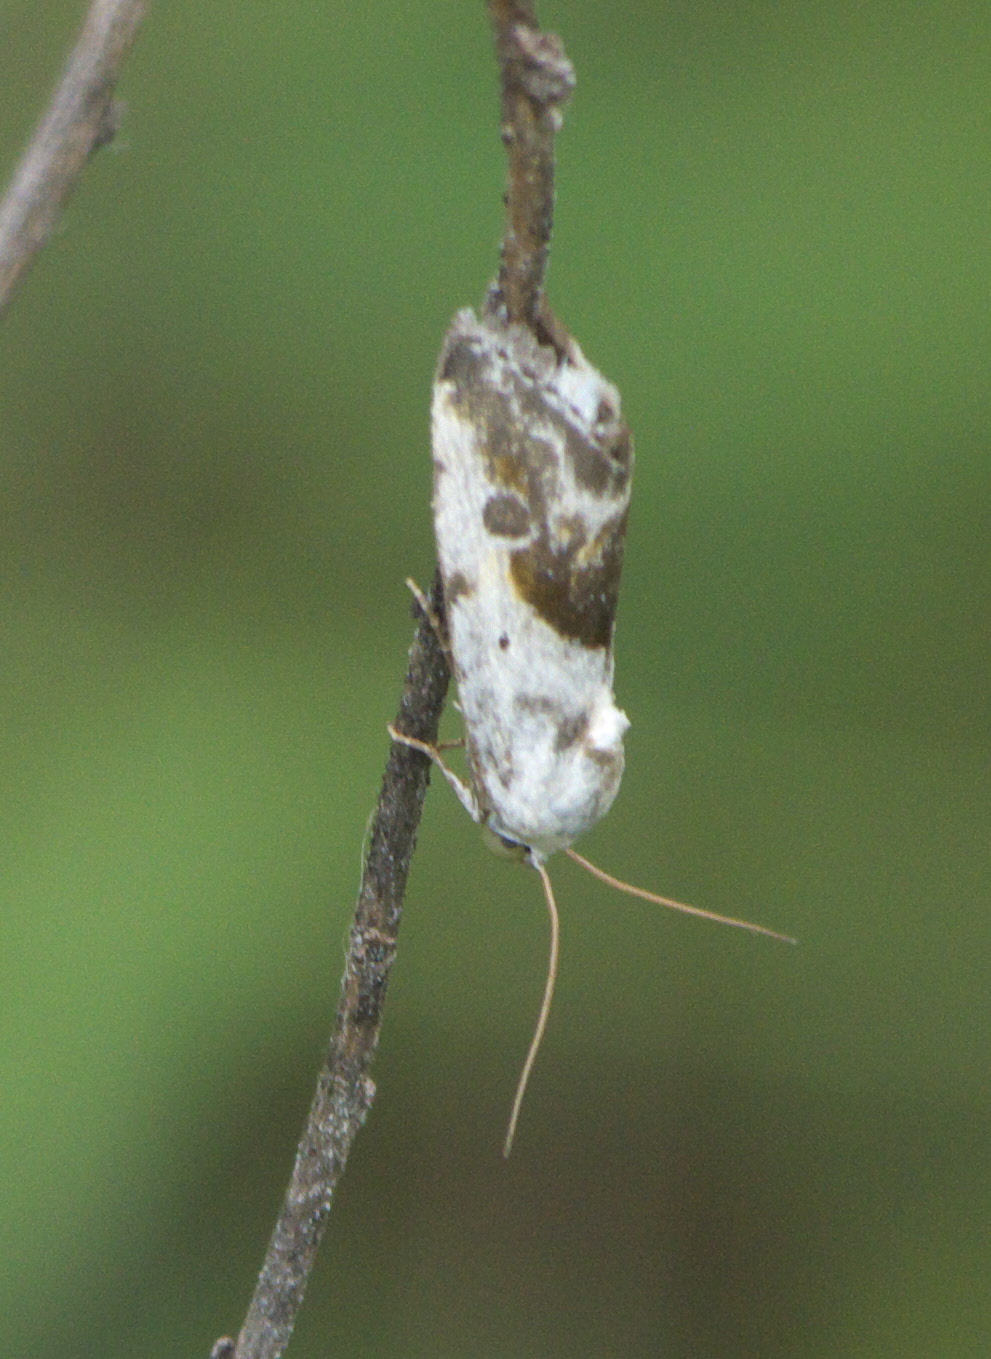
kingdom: Animalia
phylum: Arthropoda
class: Insecta
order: Lepidoptera
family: Noctuidae
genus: Acontia
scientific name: Acontia candefacta
